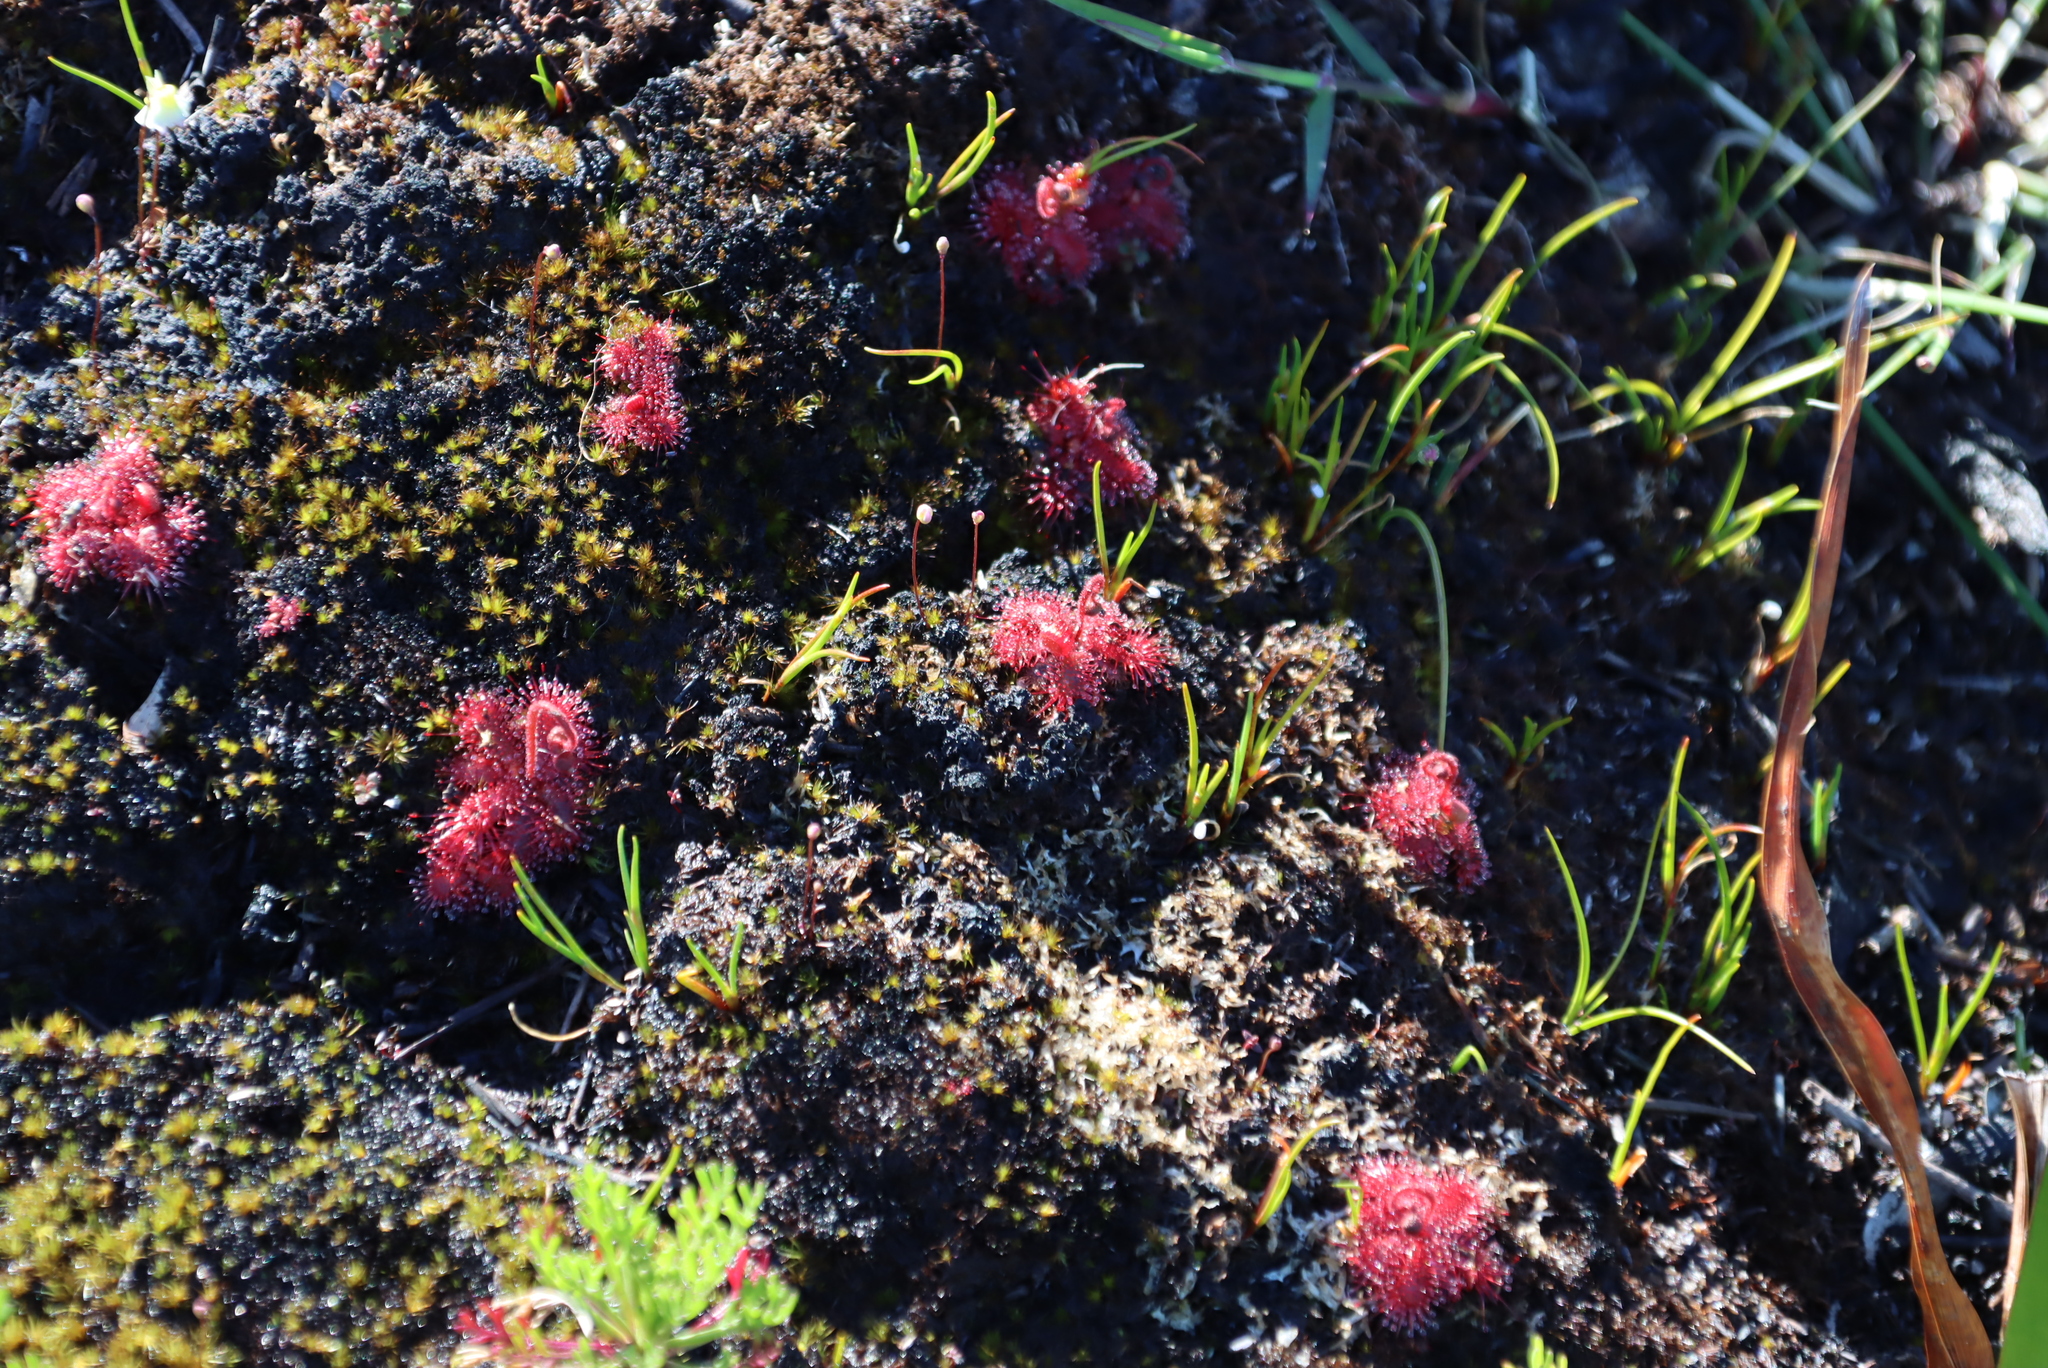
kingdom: Plantae
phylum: Tracheophyta
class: Magnoliopsida
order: Caryophyllales
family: Droseraceae
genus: Drosera
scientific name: Drosera trinervia
